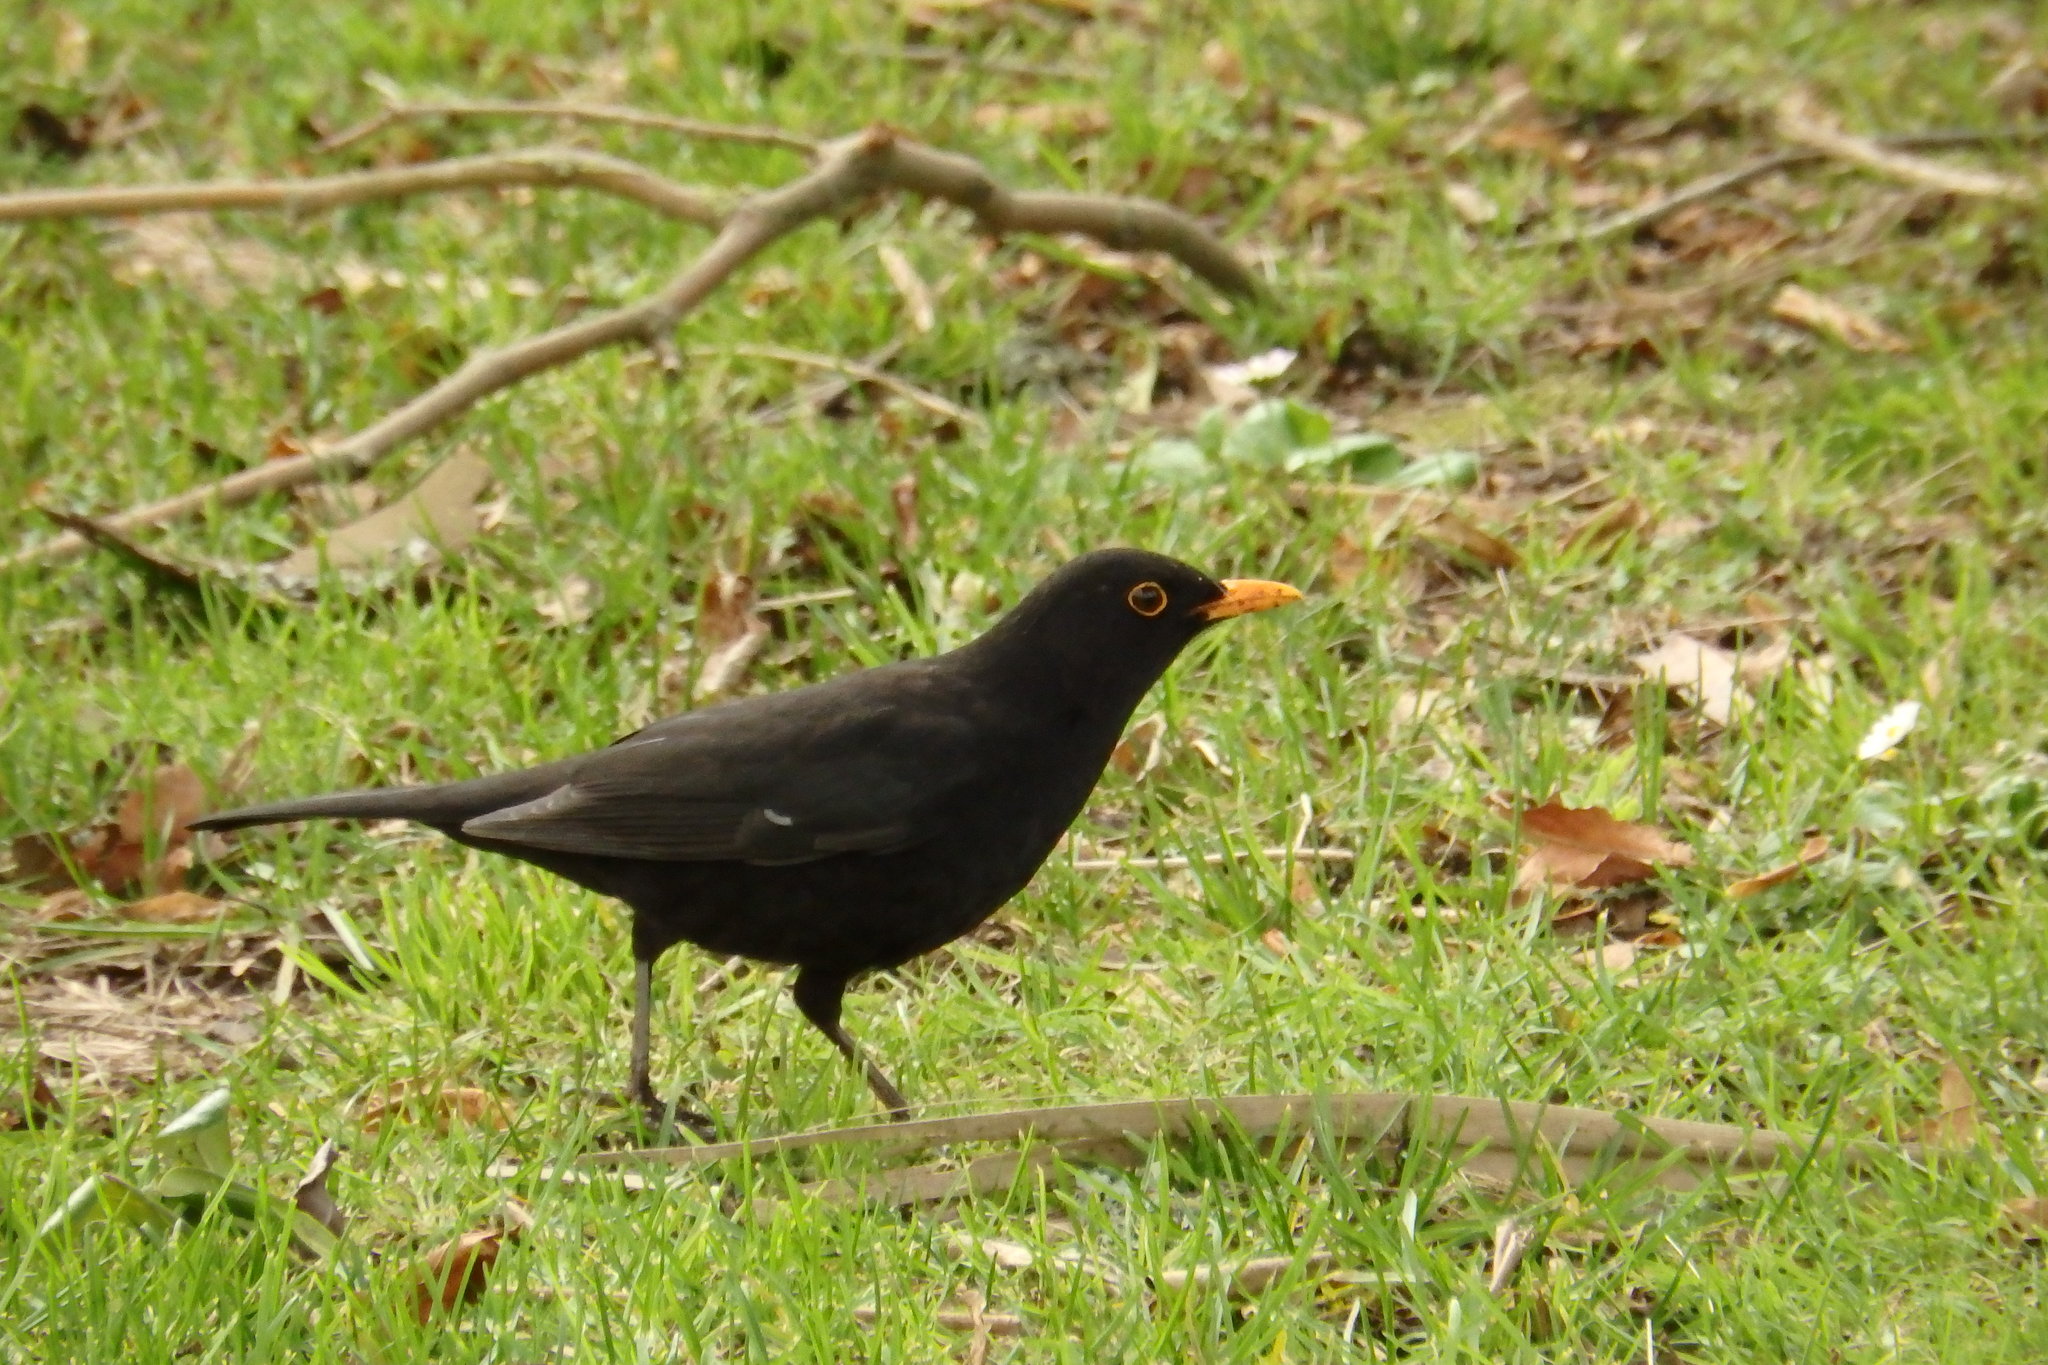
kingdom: Animalia
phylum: Chordata
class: Aves
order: Passeriformes
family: Turdidae
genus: Turdus
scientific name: Turdus merula
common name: Common blackbird
